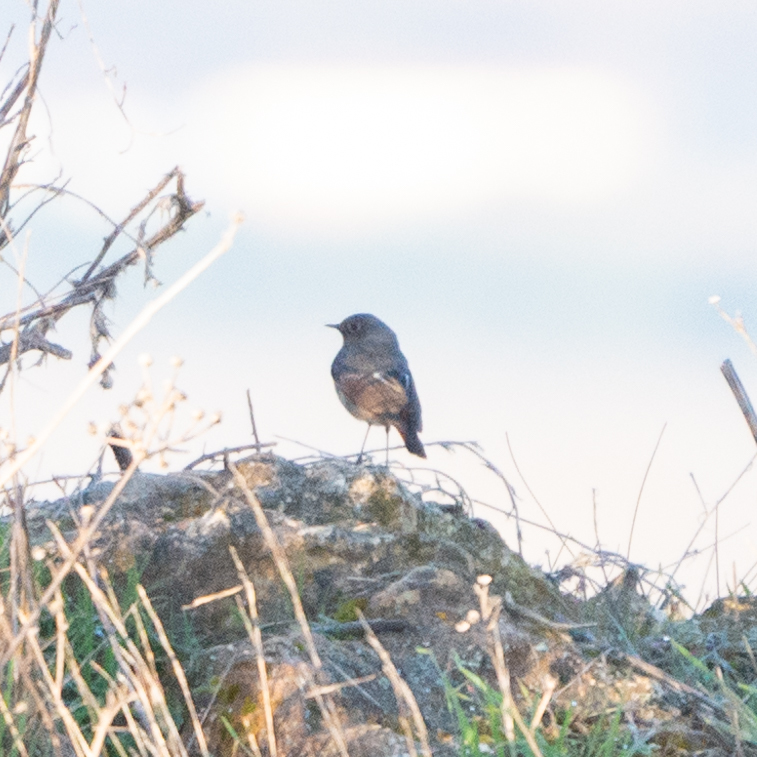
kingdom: Animalia
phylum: Chordata
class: Aves
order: Passeriformes
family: Muscicapidae
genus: Phoenicurus
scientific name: Phoenicurus ochruros
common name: Black redstart
